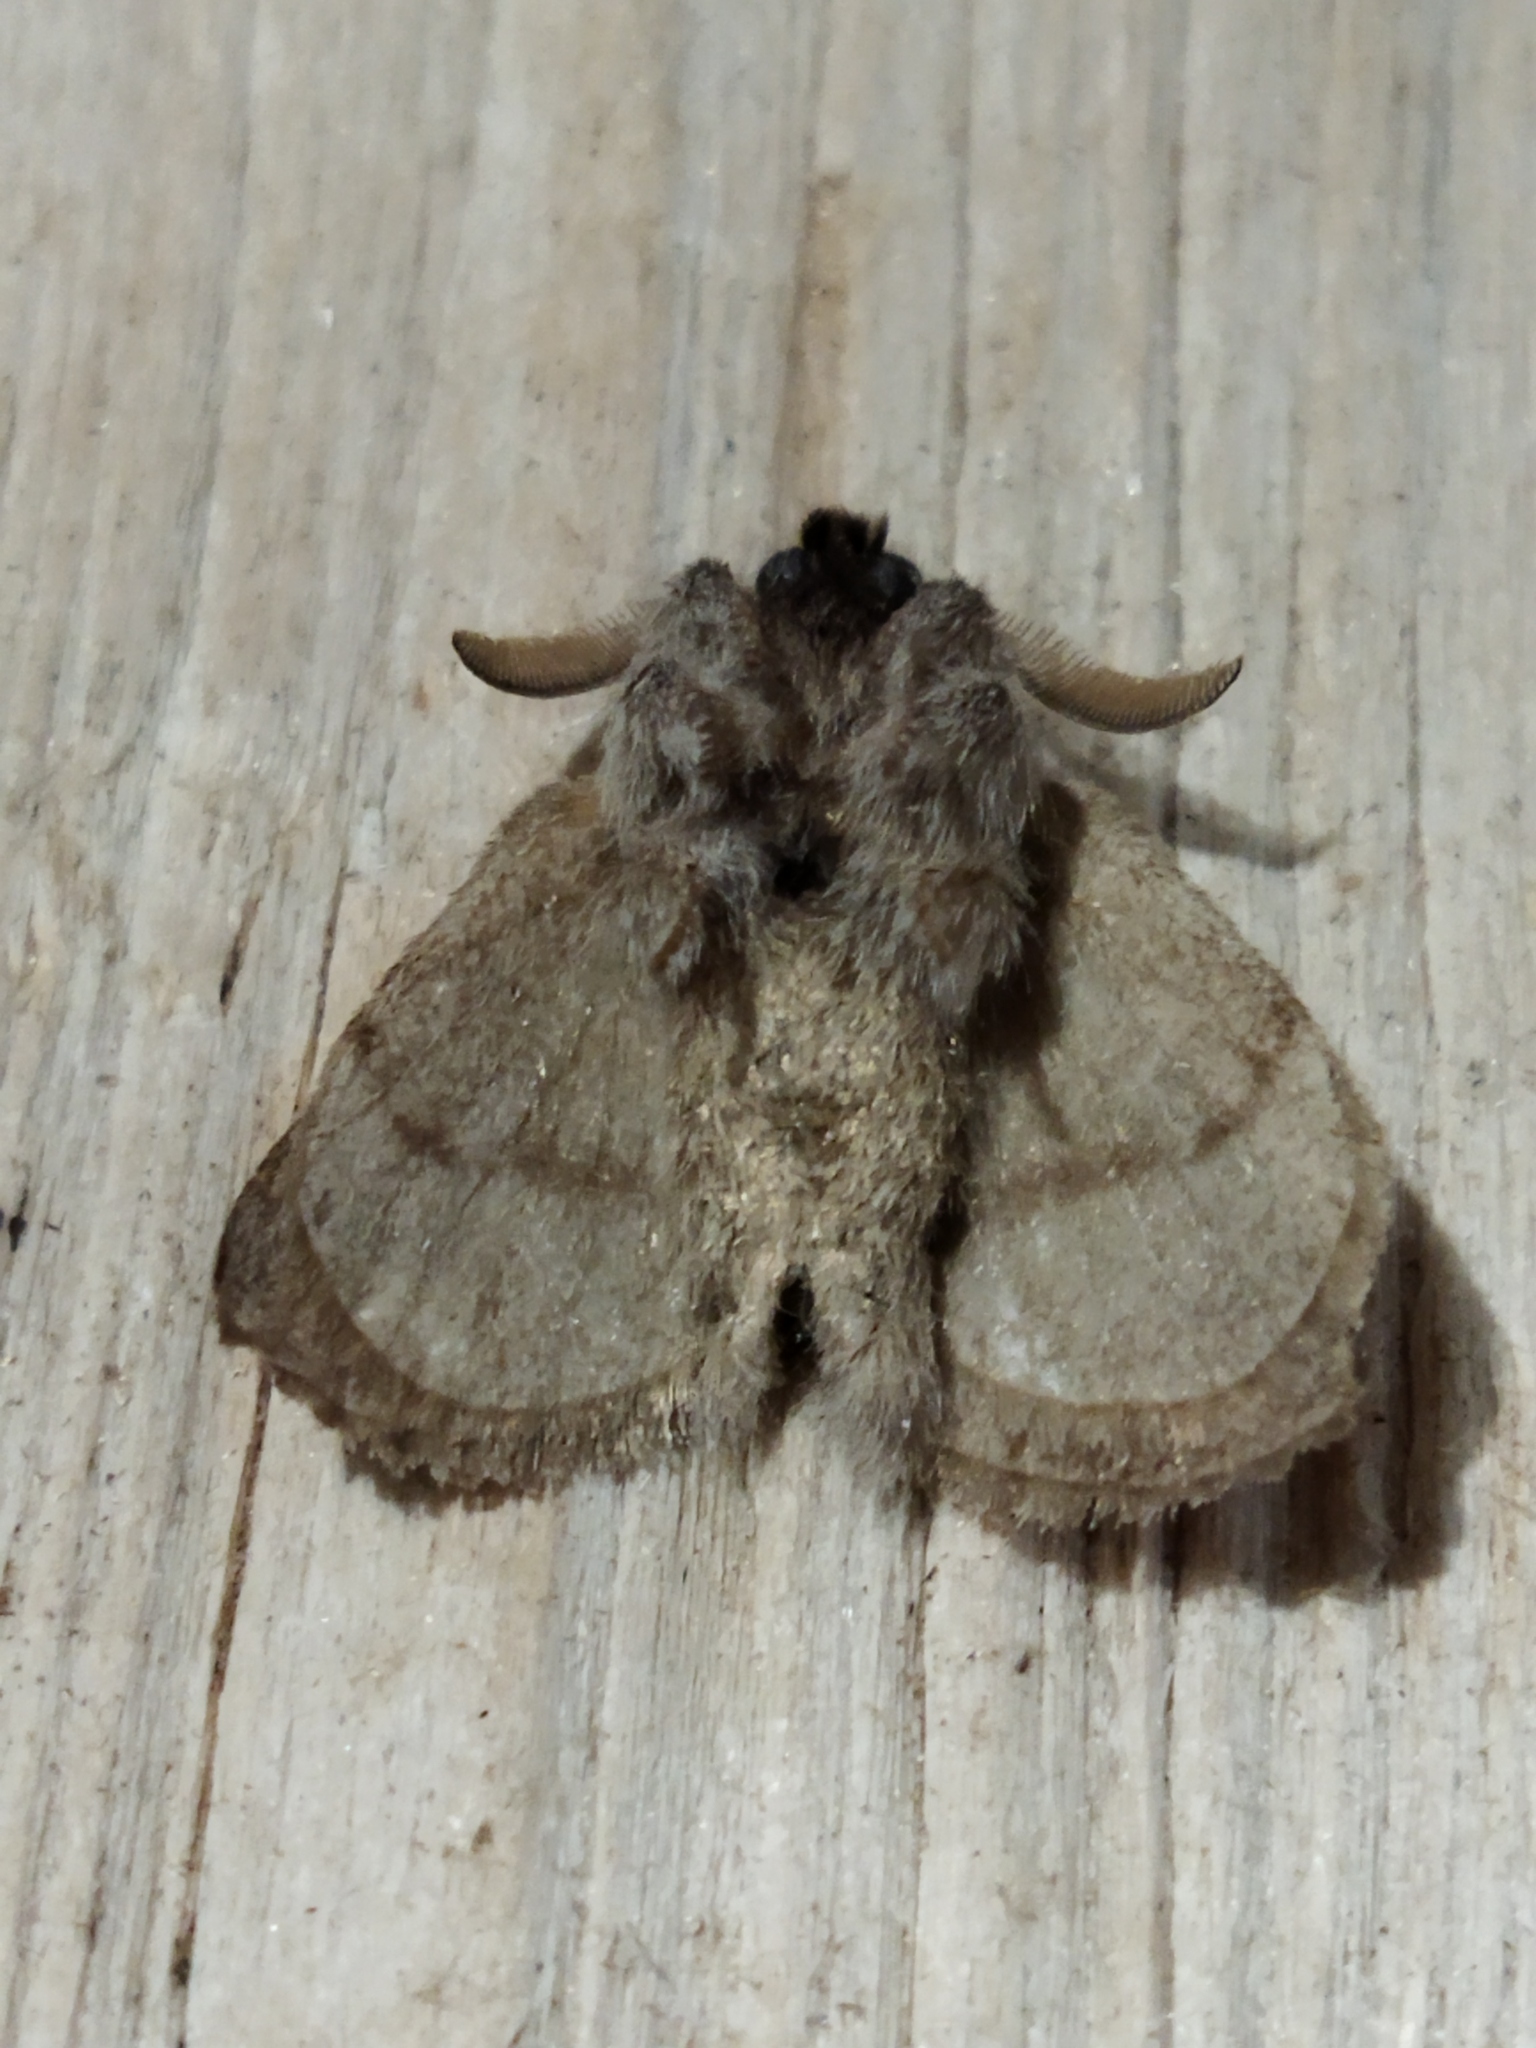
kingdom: Animalia
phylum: Arthropoda
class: Insecta
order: Lepidoptera
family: Lasiocampidae
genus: Trichiura
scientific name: Trichiura crataegi
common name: Pale eggar
